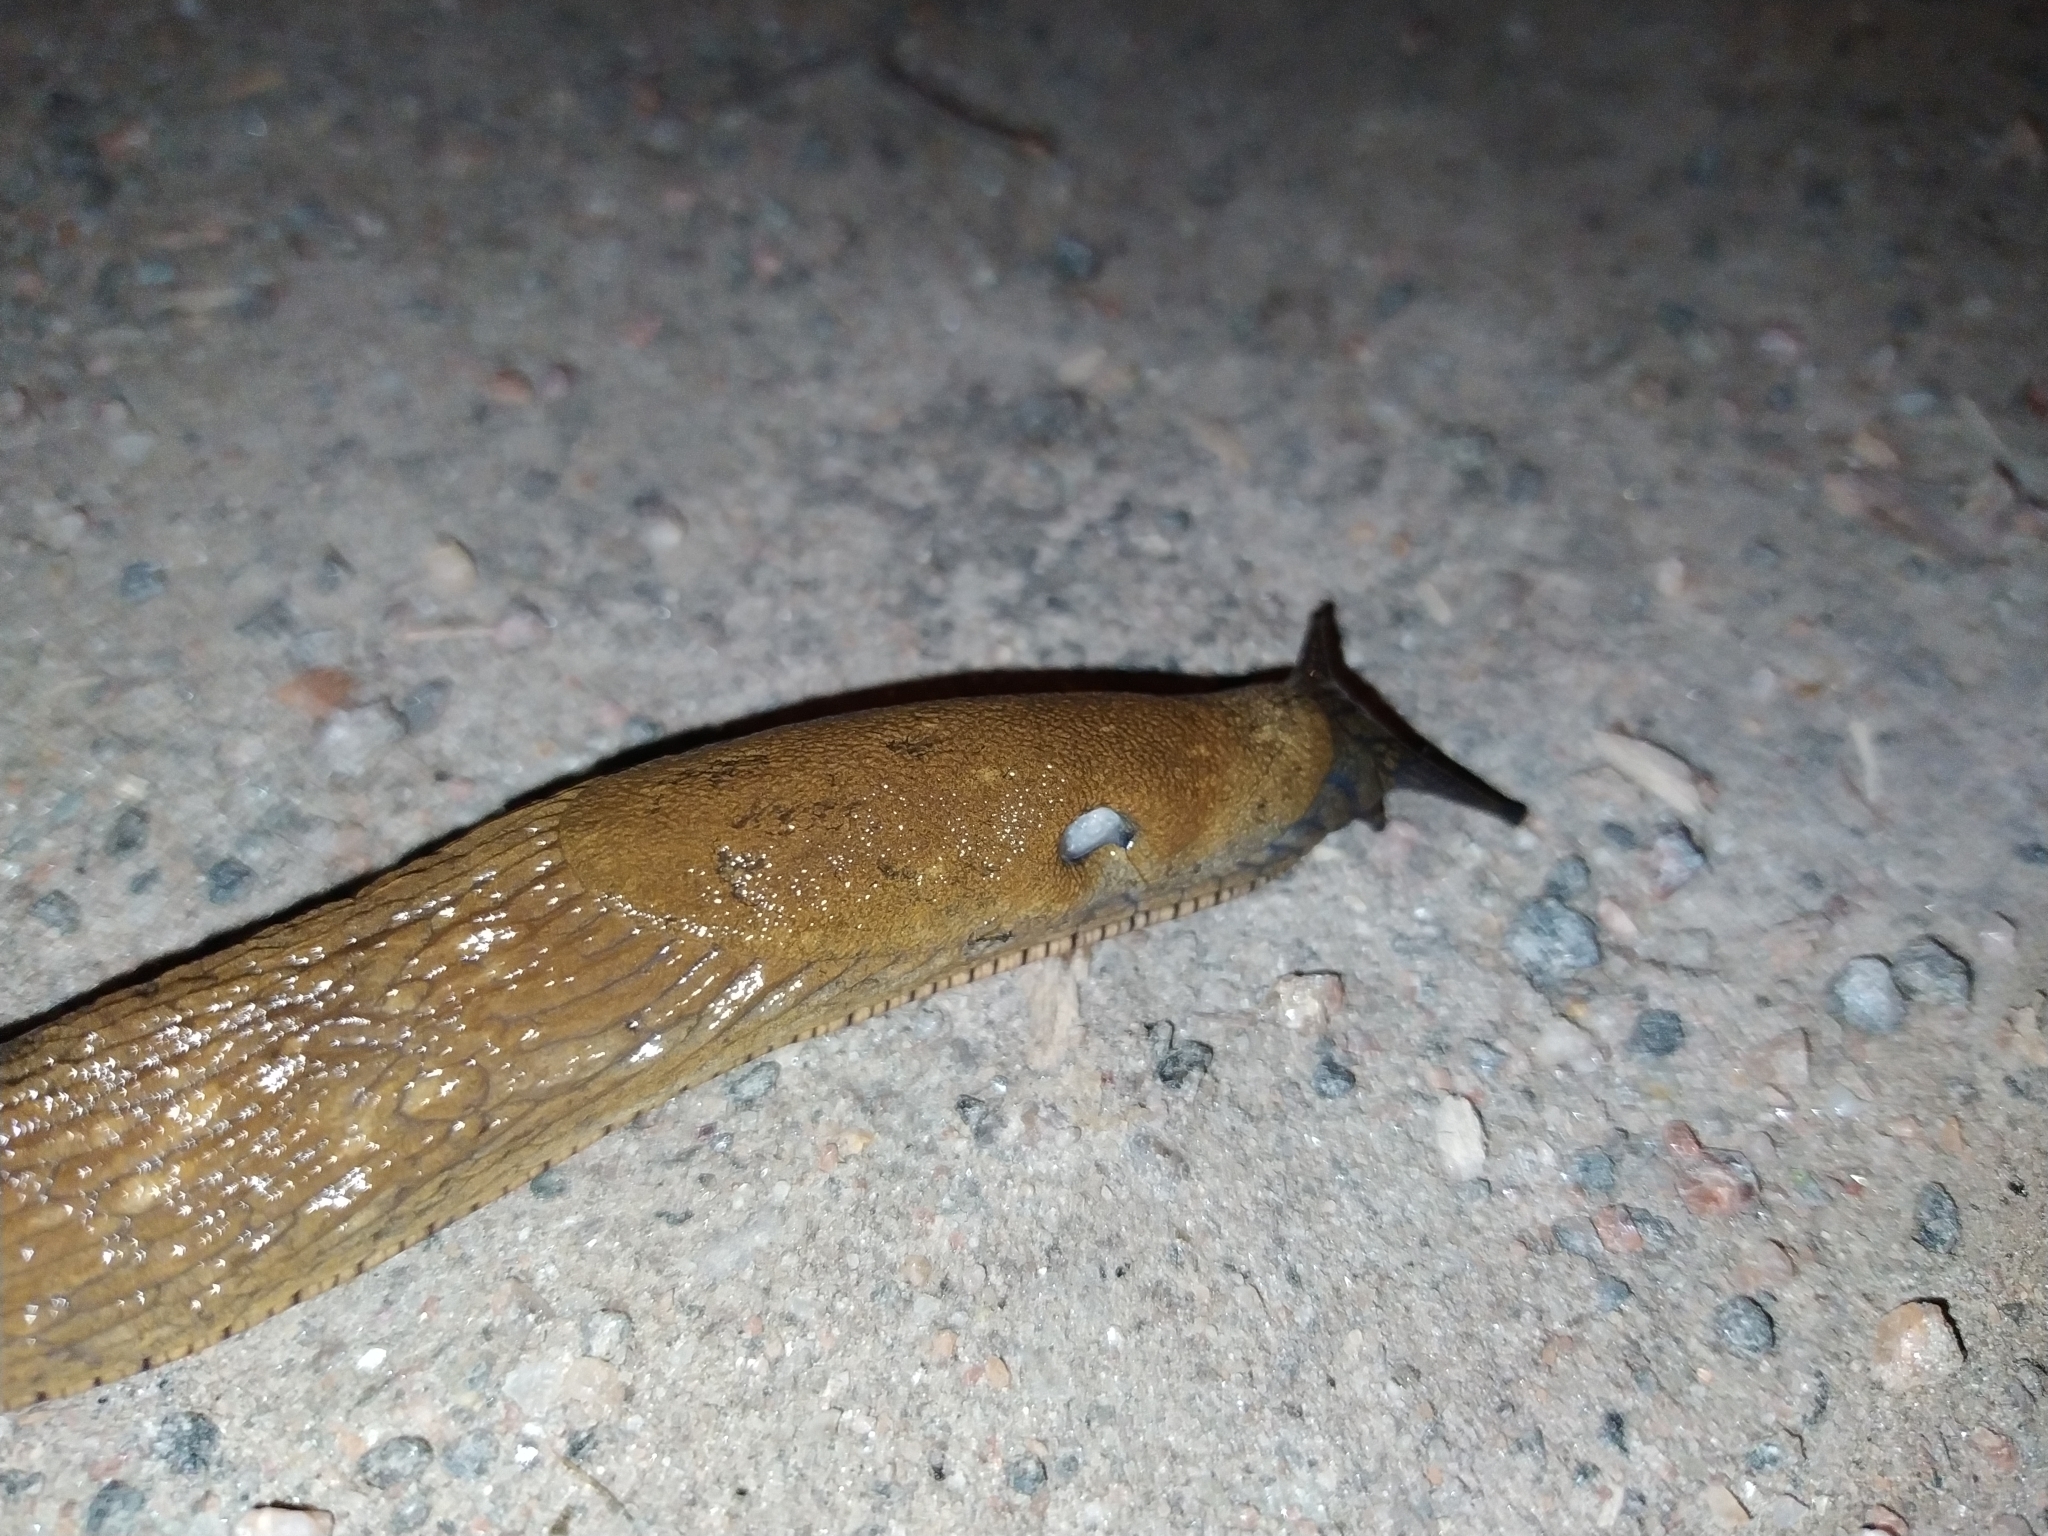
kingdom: Animalia
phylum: Mollusca
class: Gastropoda
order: Stylommatophora
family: Arionidae
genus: Arion
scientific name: Arion vulgaris
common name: Lusitanian slug
